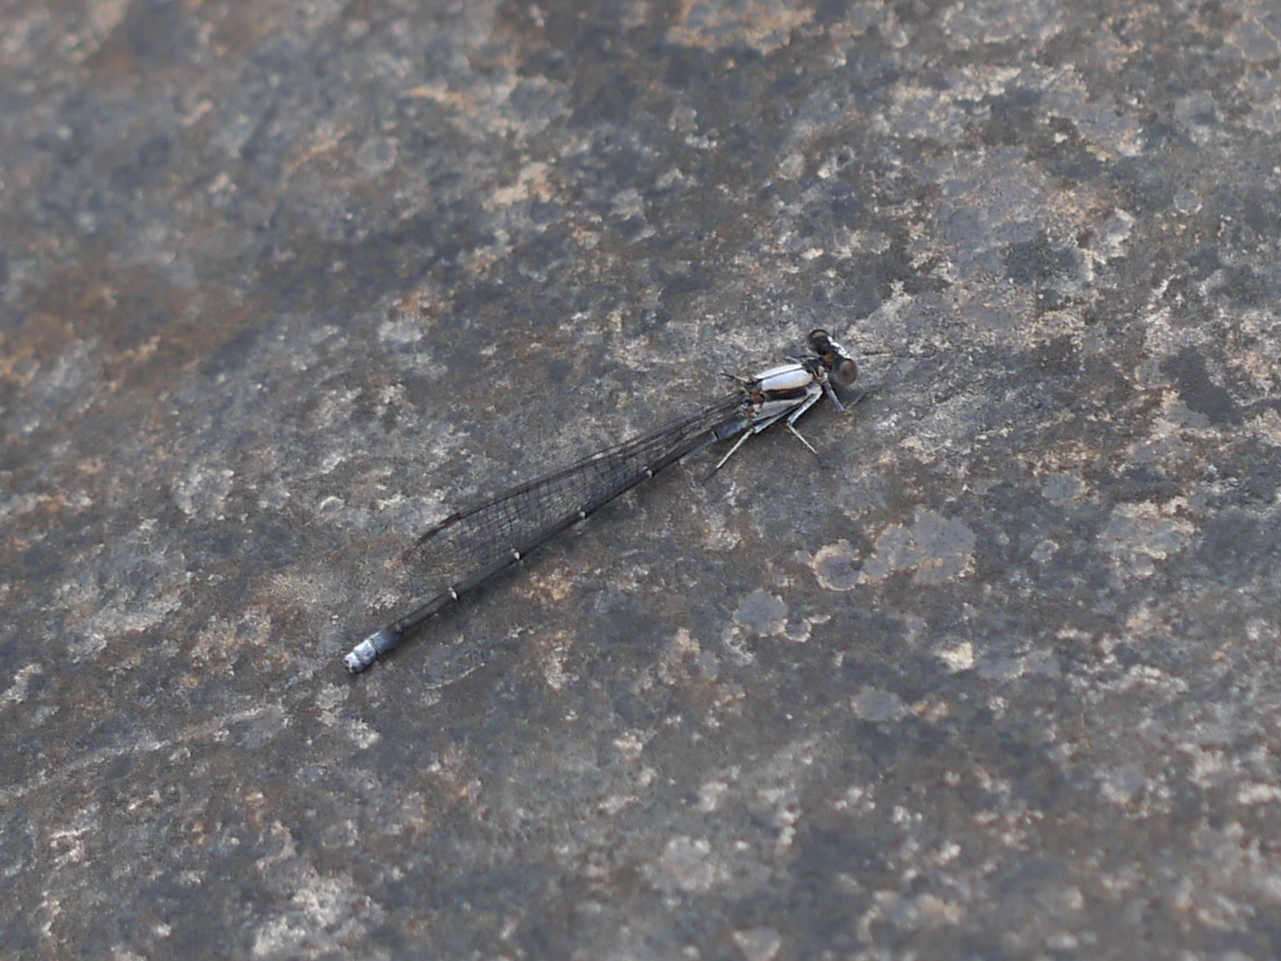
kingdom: Animalia
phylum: Arthropoda
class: Insecta
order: Odonata
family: Coenagrionidae
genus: Argia
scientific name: Argia moesta
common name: Powdered dancer
